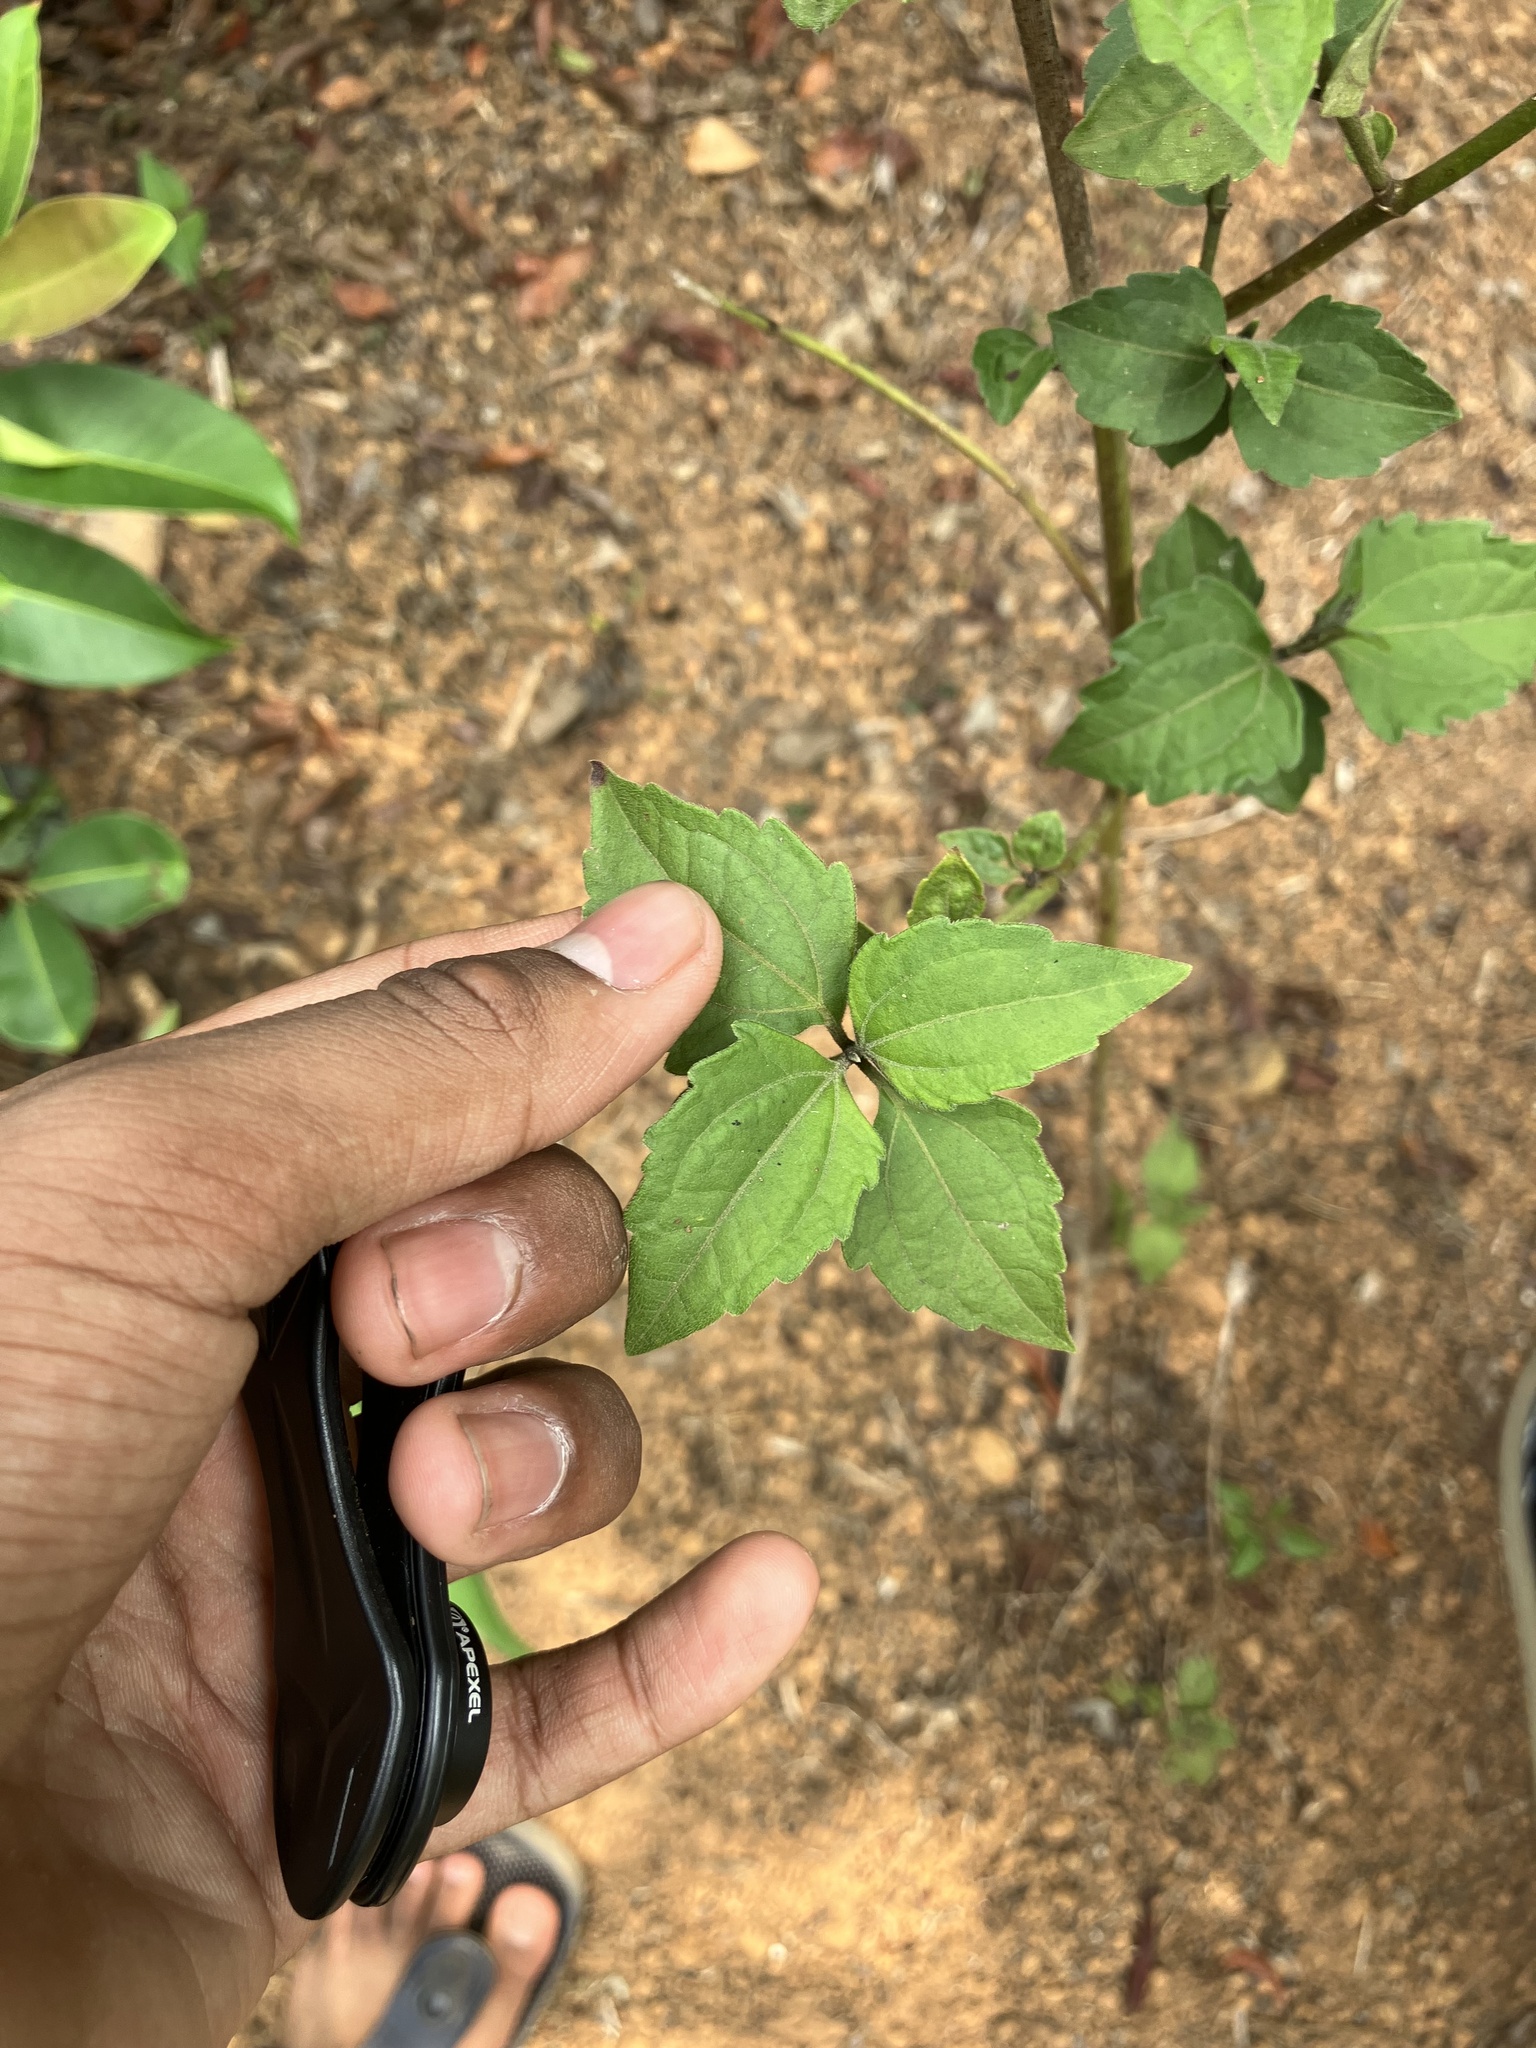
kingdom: Plantae
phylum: Tracheophyta
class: Magnoliopsida
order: Asterales
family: Asteraceae
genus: Chromolaena
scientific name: Chromolaena odorata
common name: Siamweed
